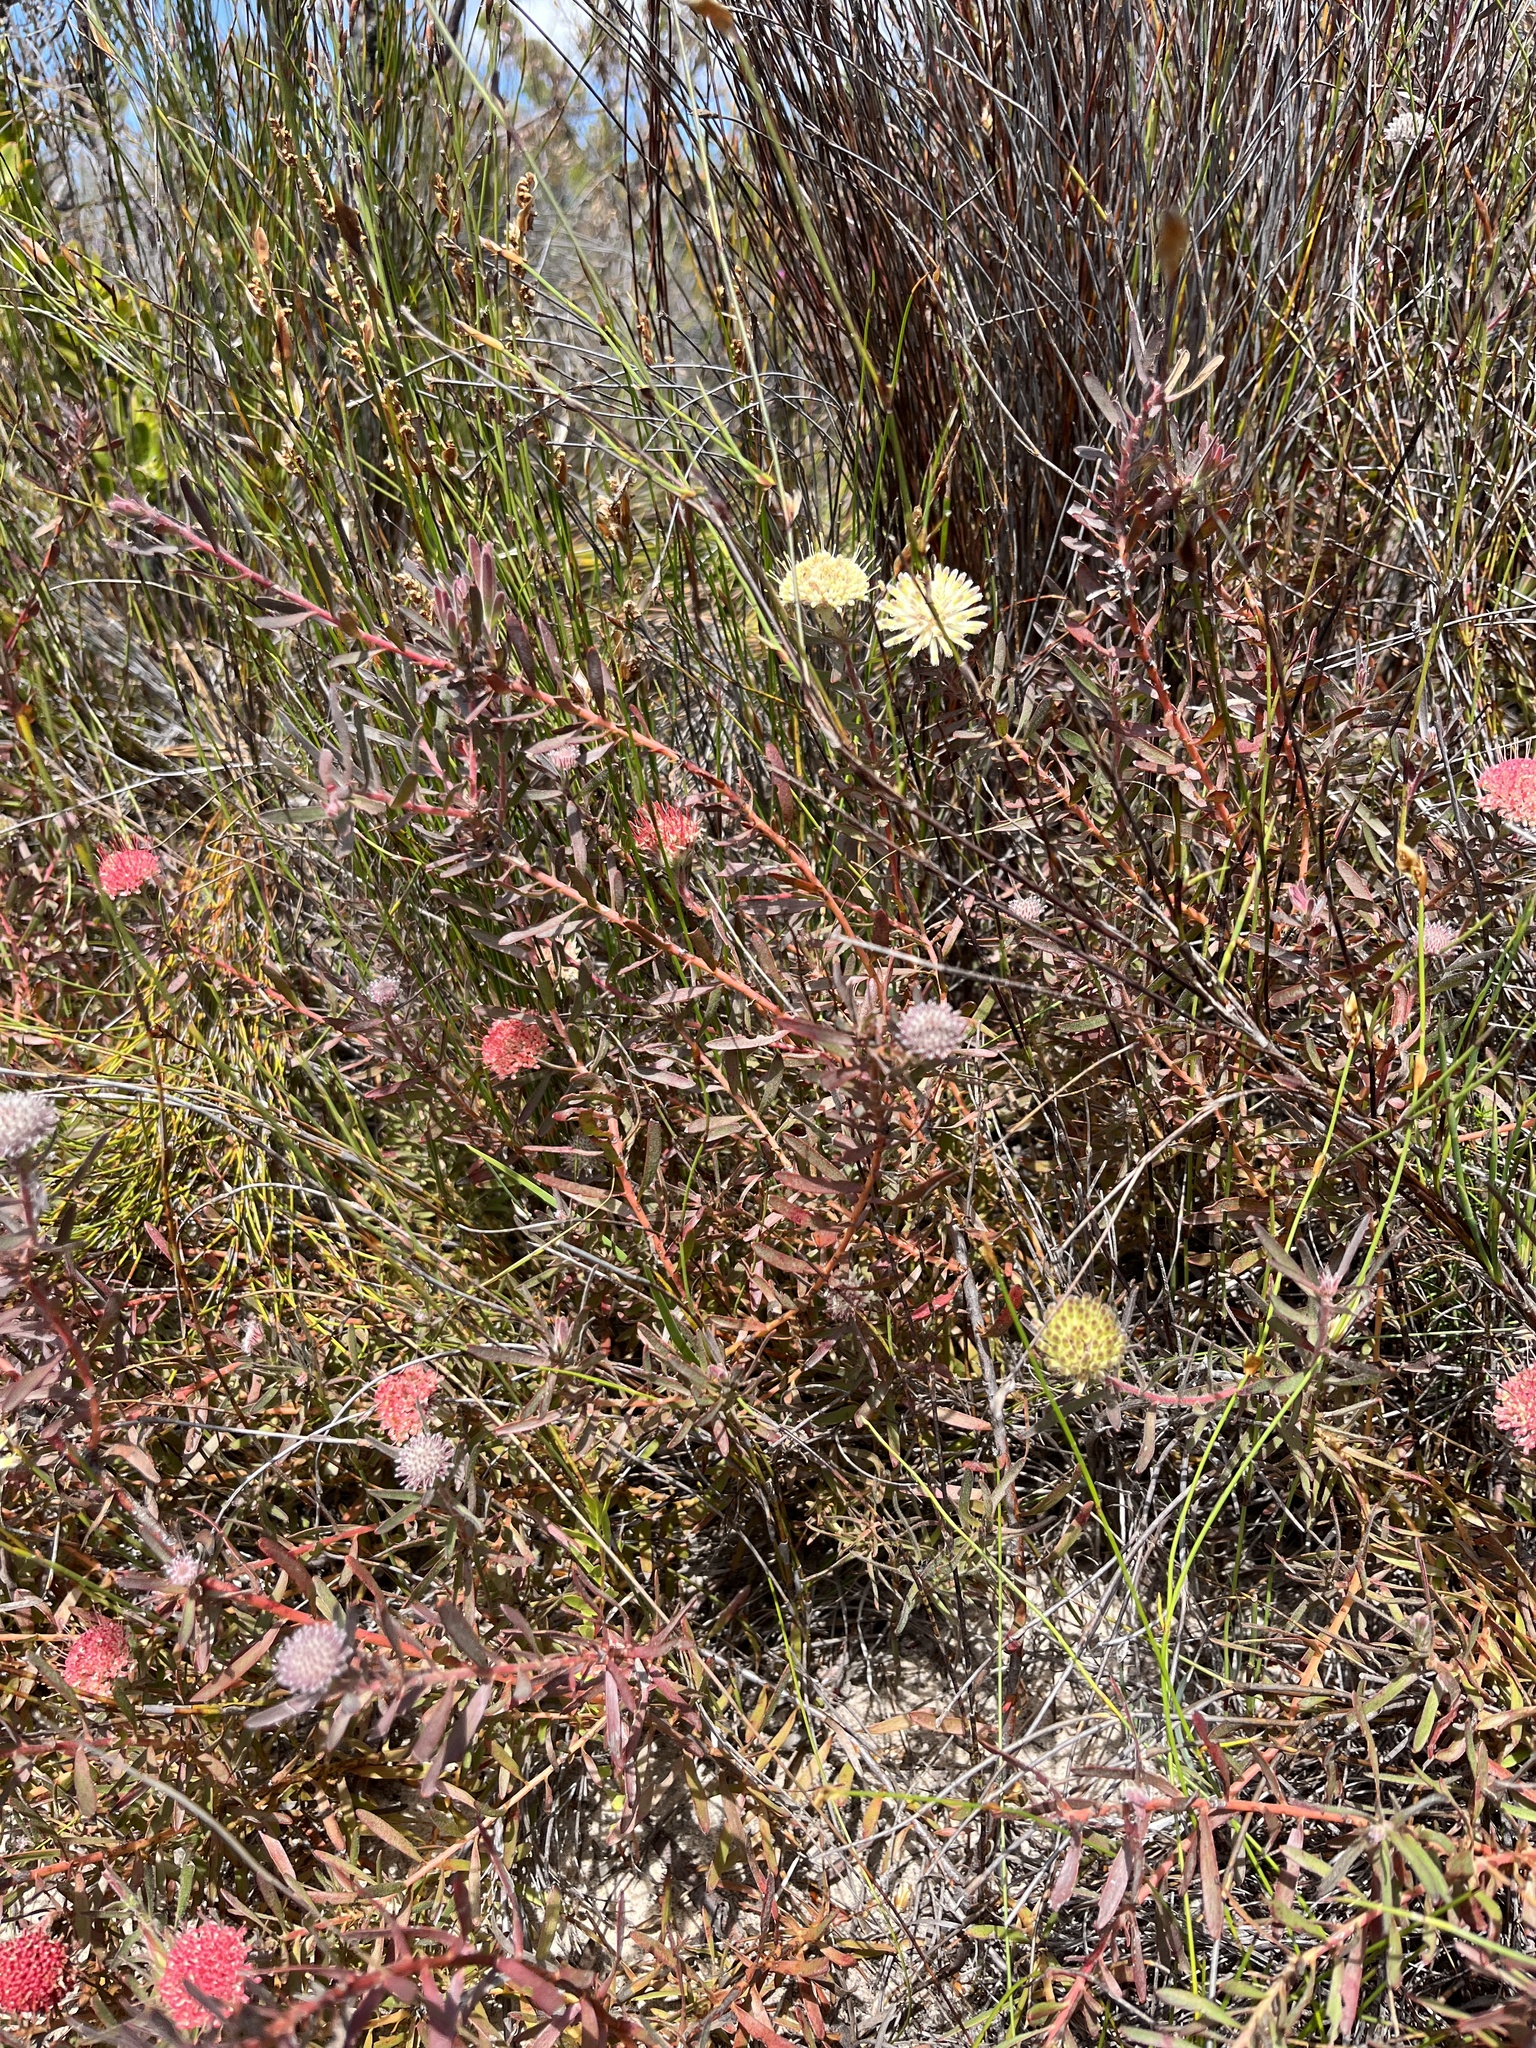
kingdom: Plantae
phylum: Tracheophyta
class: Magnoliopsida
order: Proteales
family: Proteaceae
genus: Leucospermum
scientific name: Leucospermum pedunculatum
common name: White-trailing pincushion
